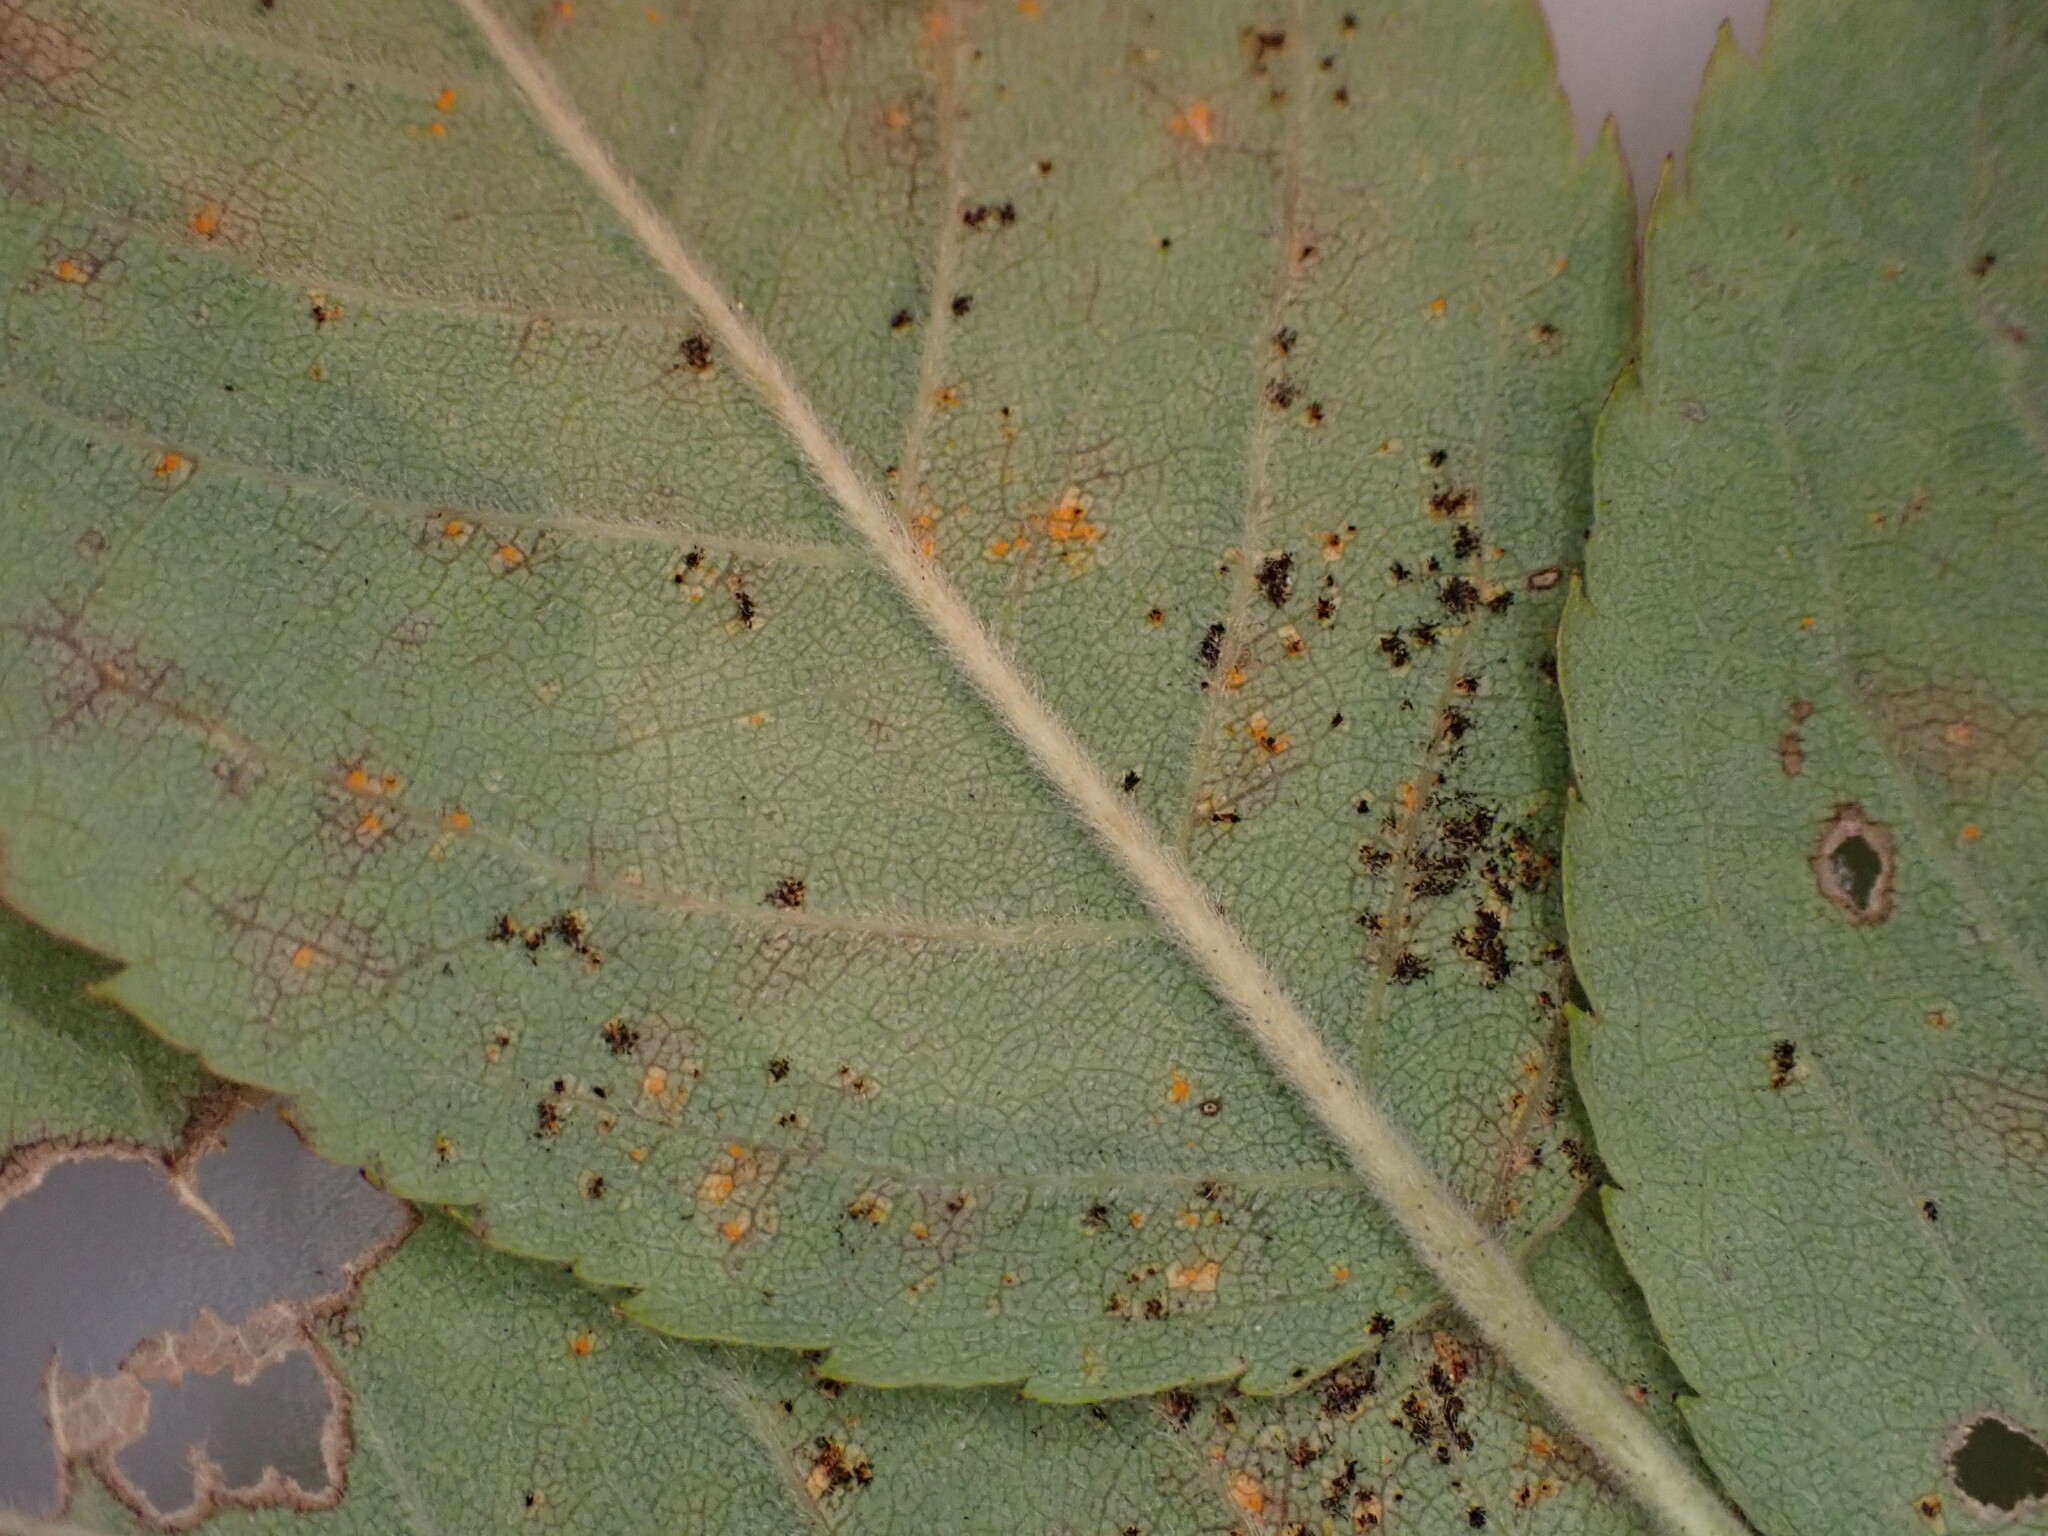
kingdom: Fungi
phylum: Basidiomycota
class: Pucciniomycetes
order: Pucciniales
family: Phragmidiaceae
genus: Phragmidium
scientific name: Phragmidium tuberculatum
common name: Rose rust
